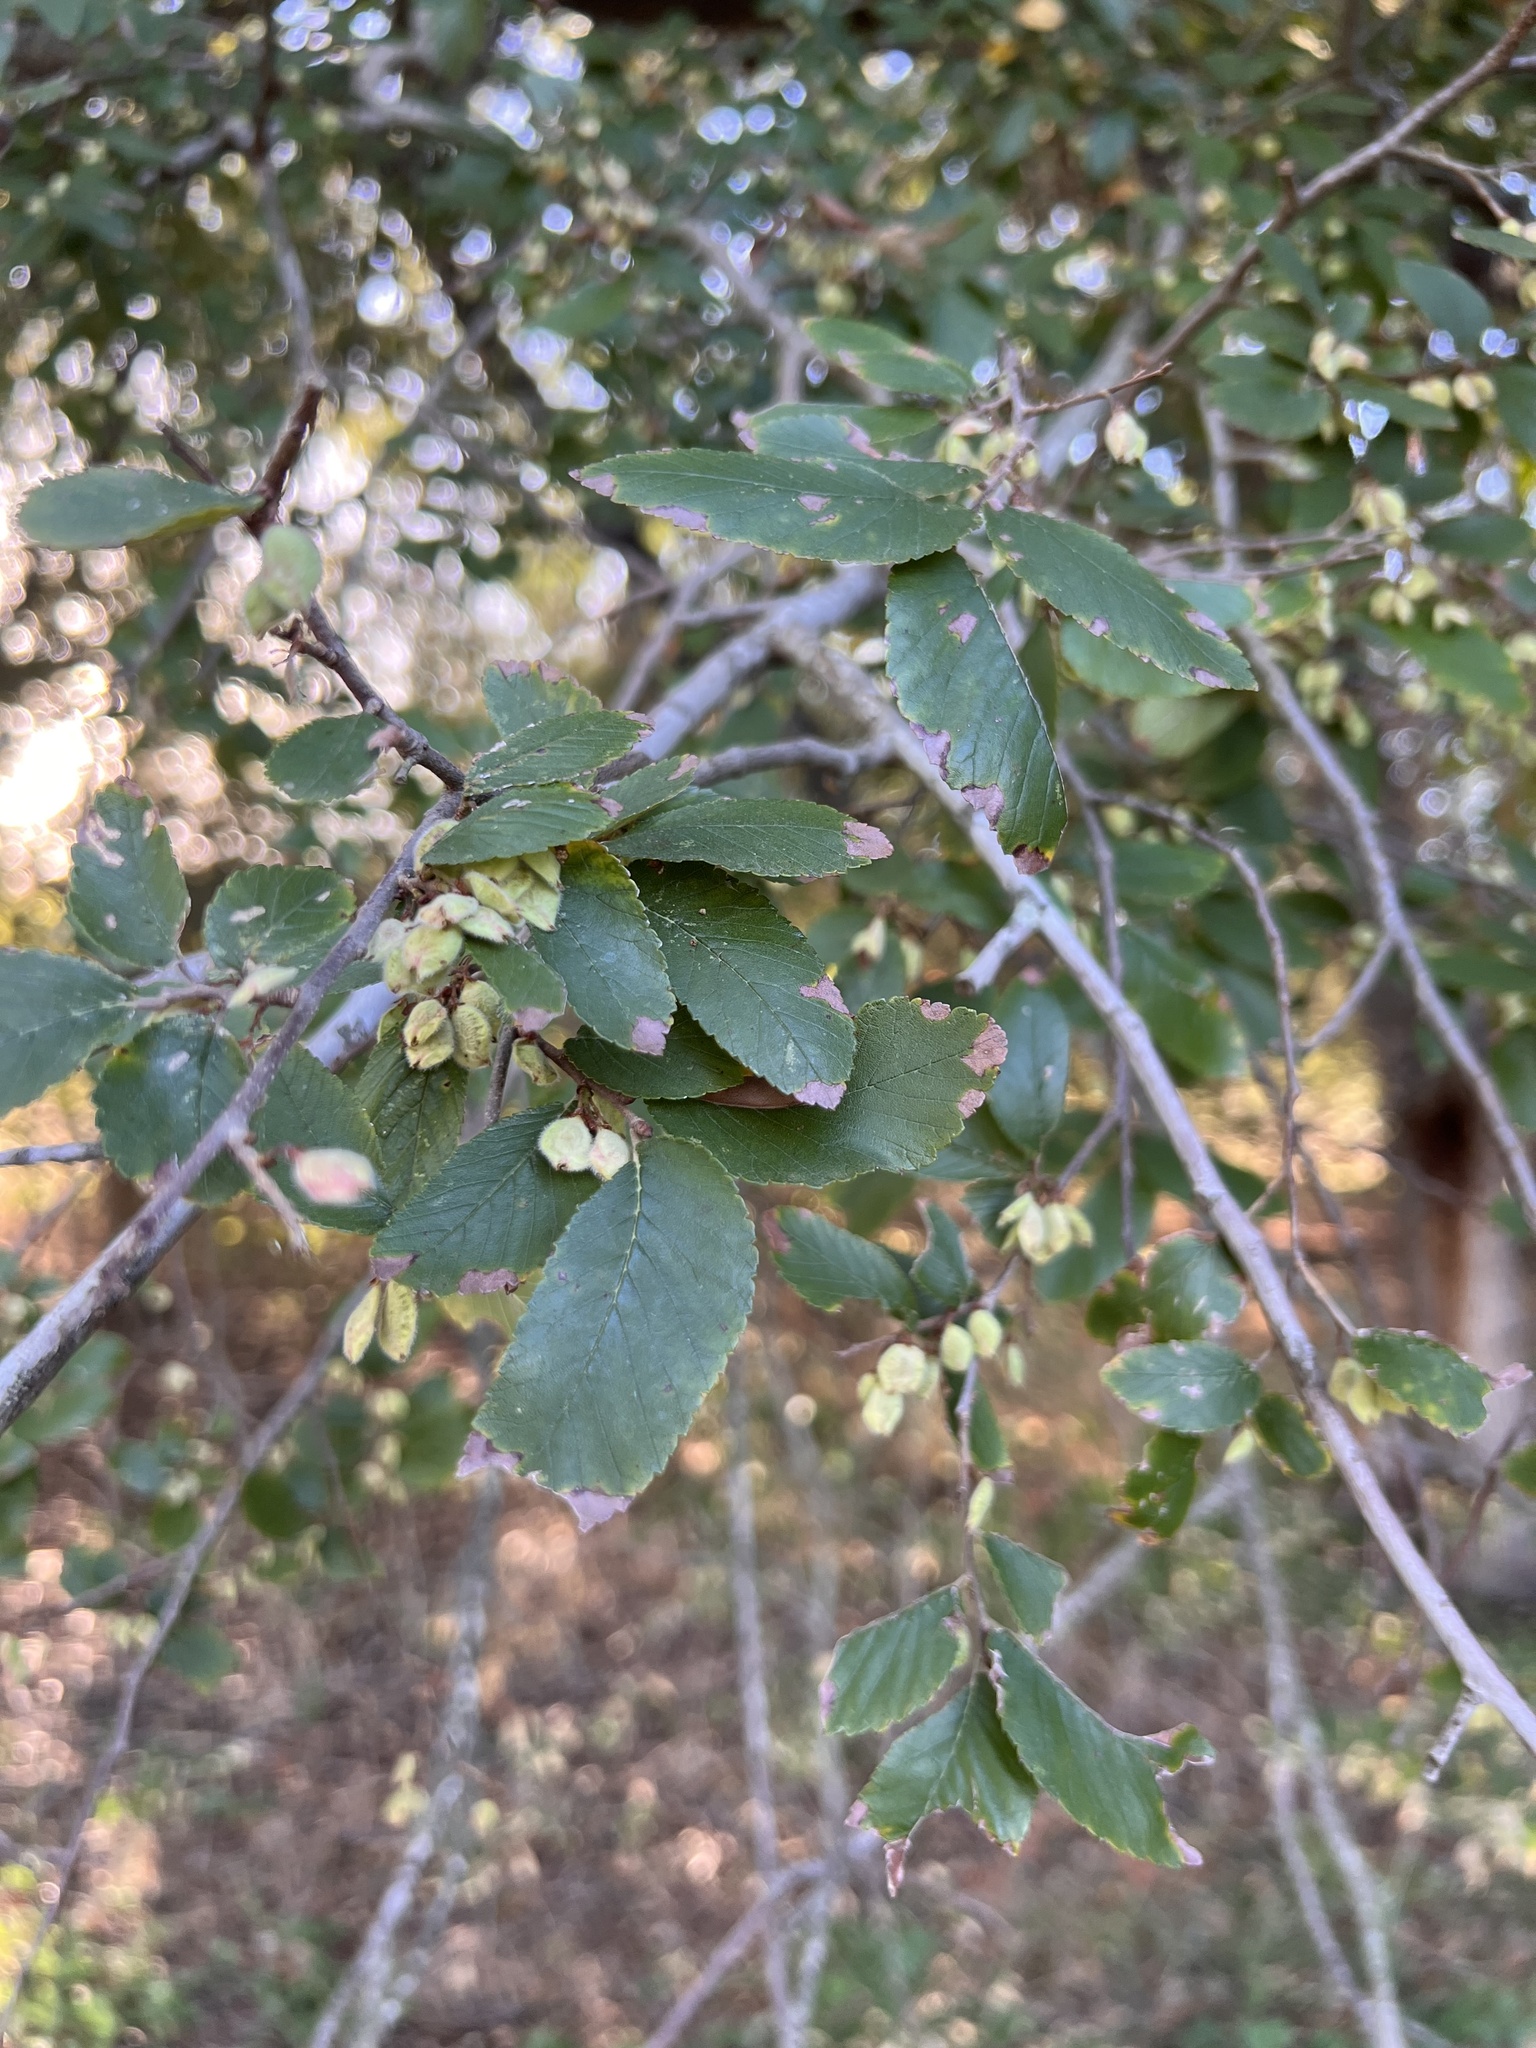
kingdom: Plantae
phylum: Tracheophyta
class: Magnoliopsida
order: Rosales
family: Ulmaceae
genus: Ulmus
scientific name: Ulmus crassifolia
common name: Basket elm
